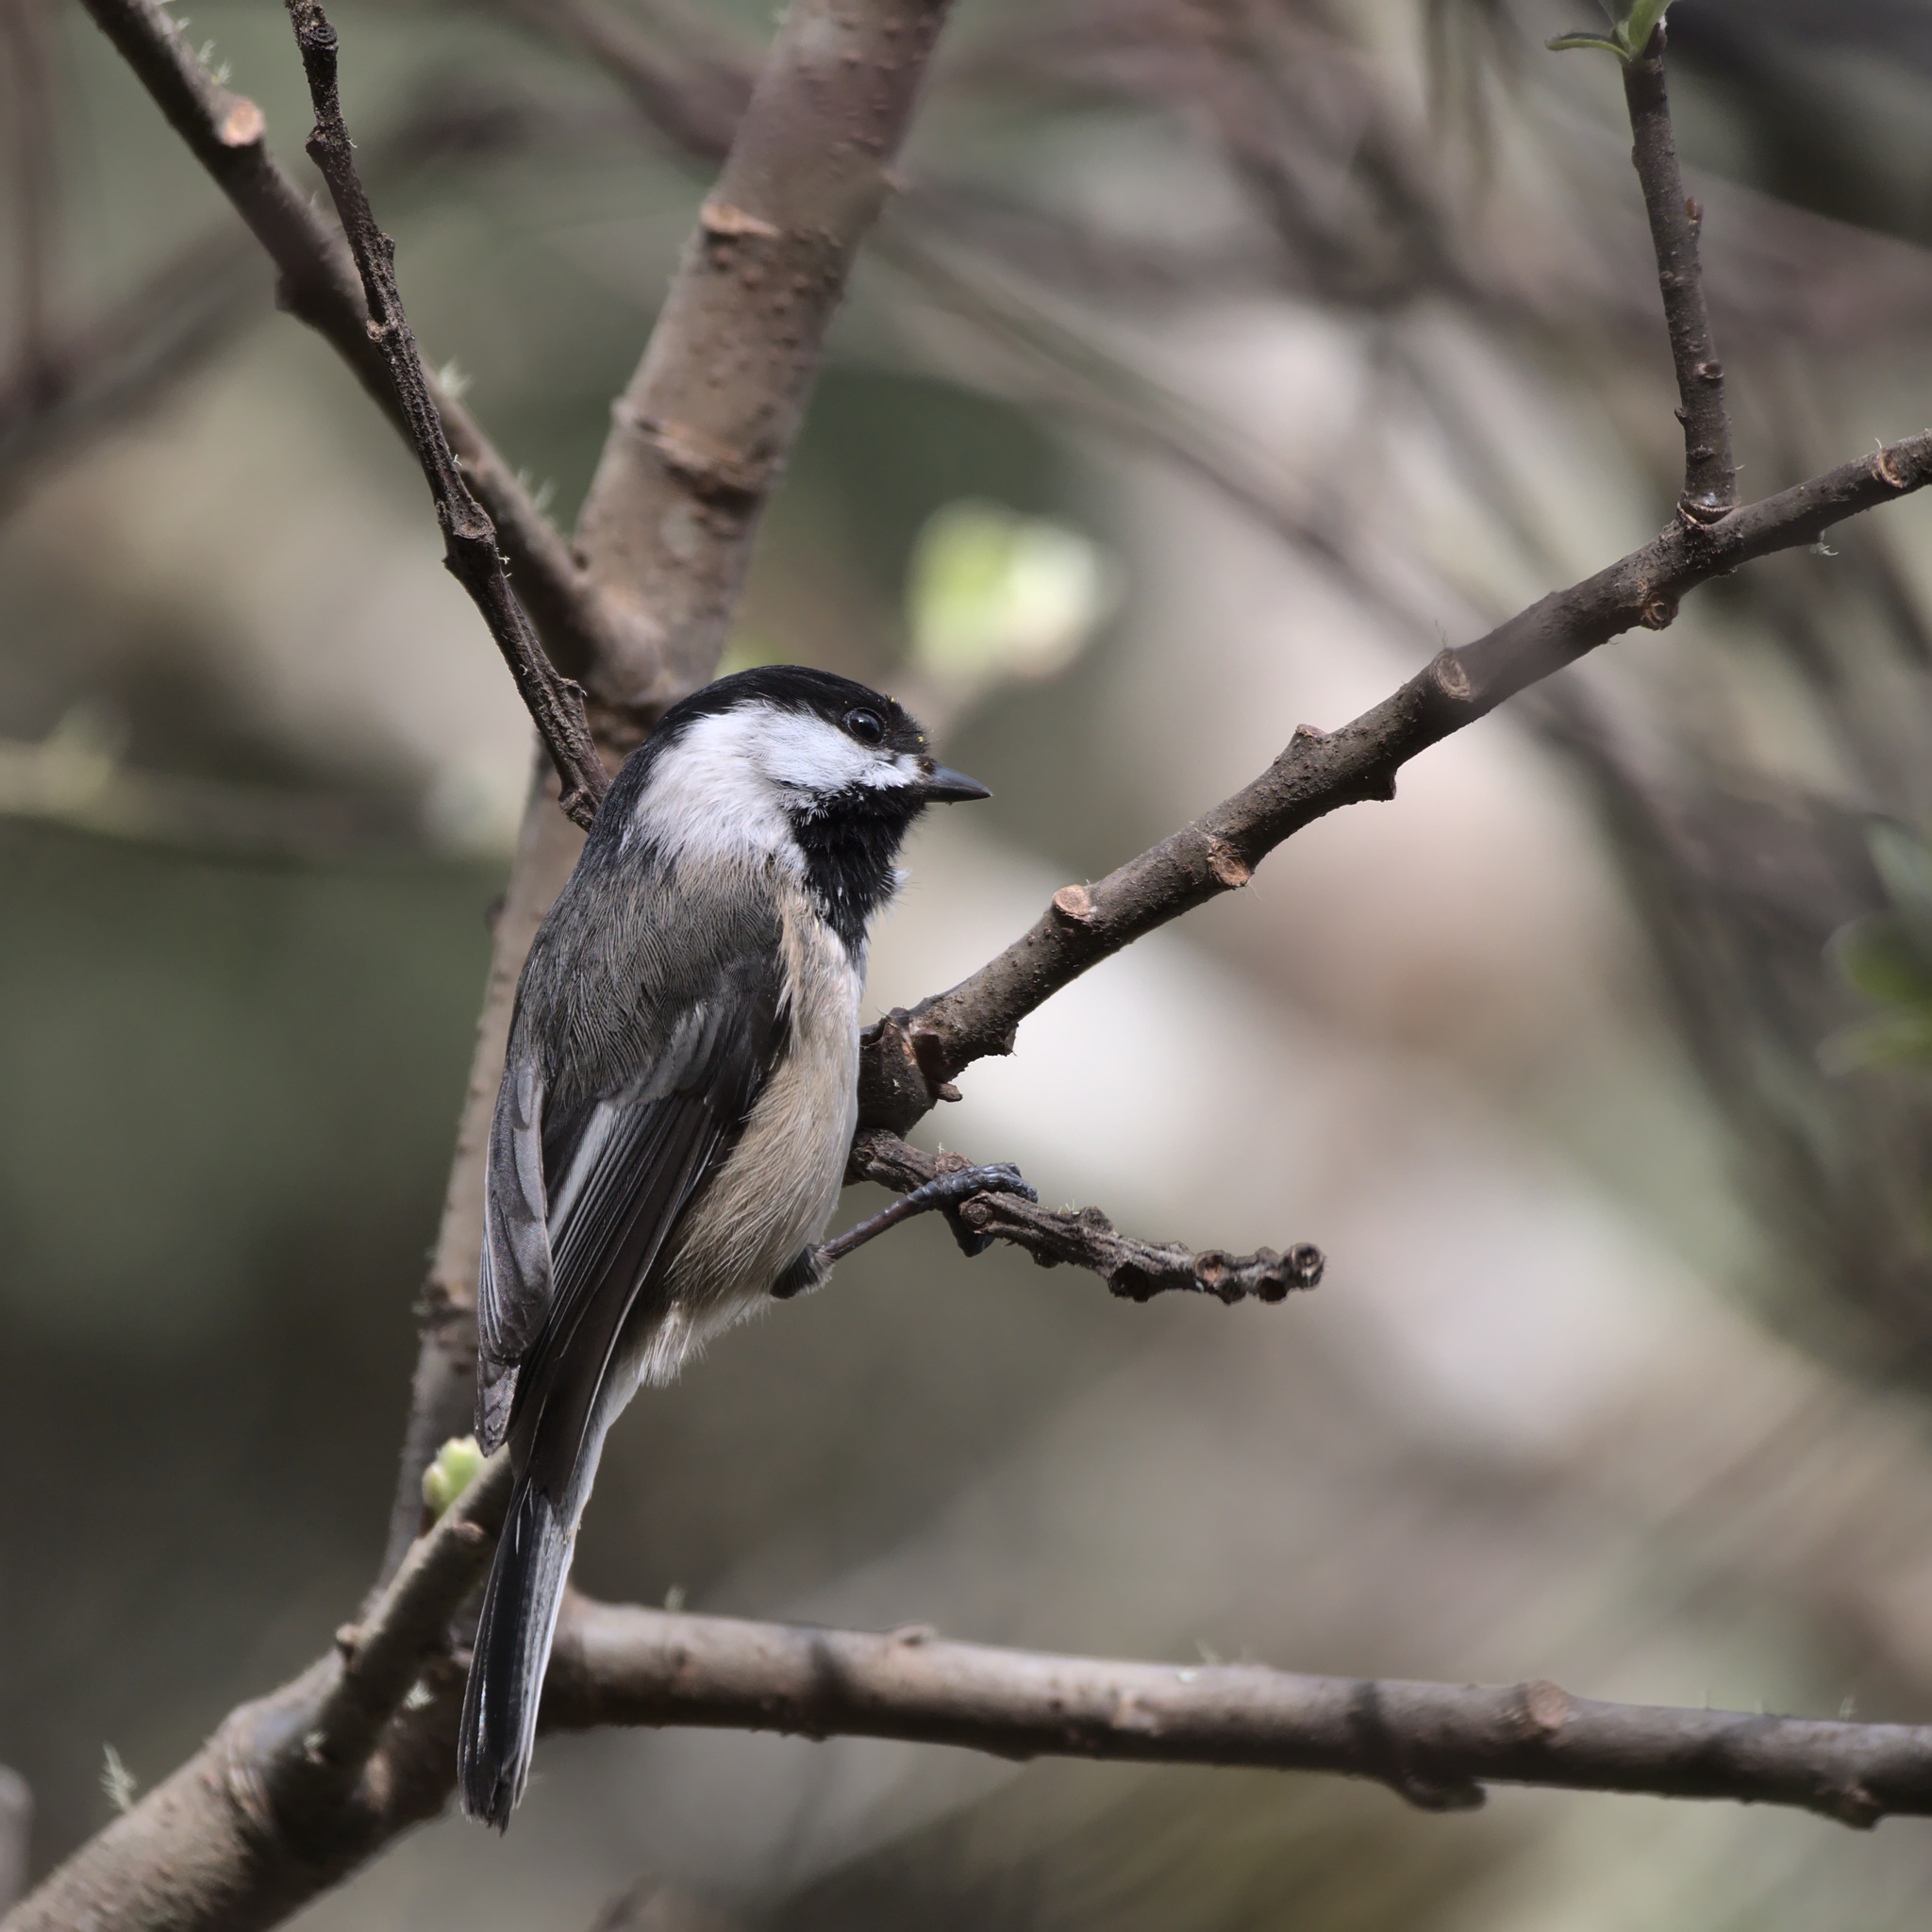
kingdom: Animalia
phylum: Chordata
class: Aves
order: Passeriformes
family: Paridae
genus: Poecile
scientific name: Poecile atricapillus
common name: Black-capped chickadee
